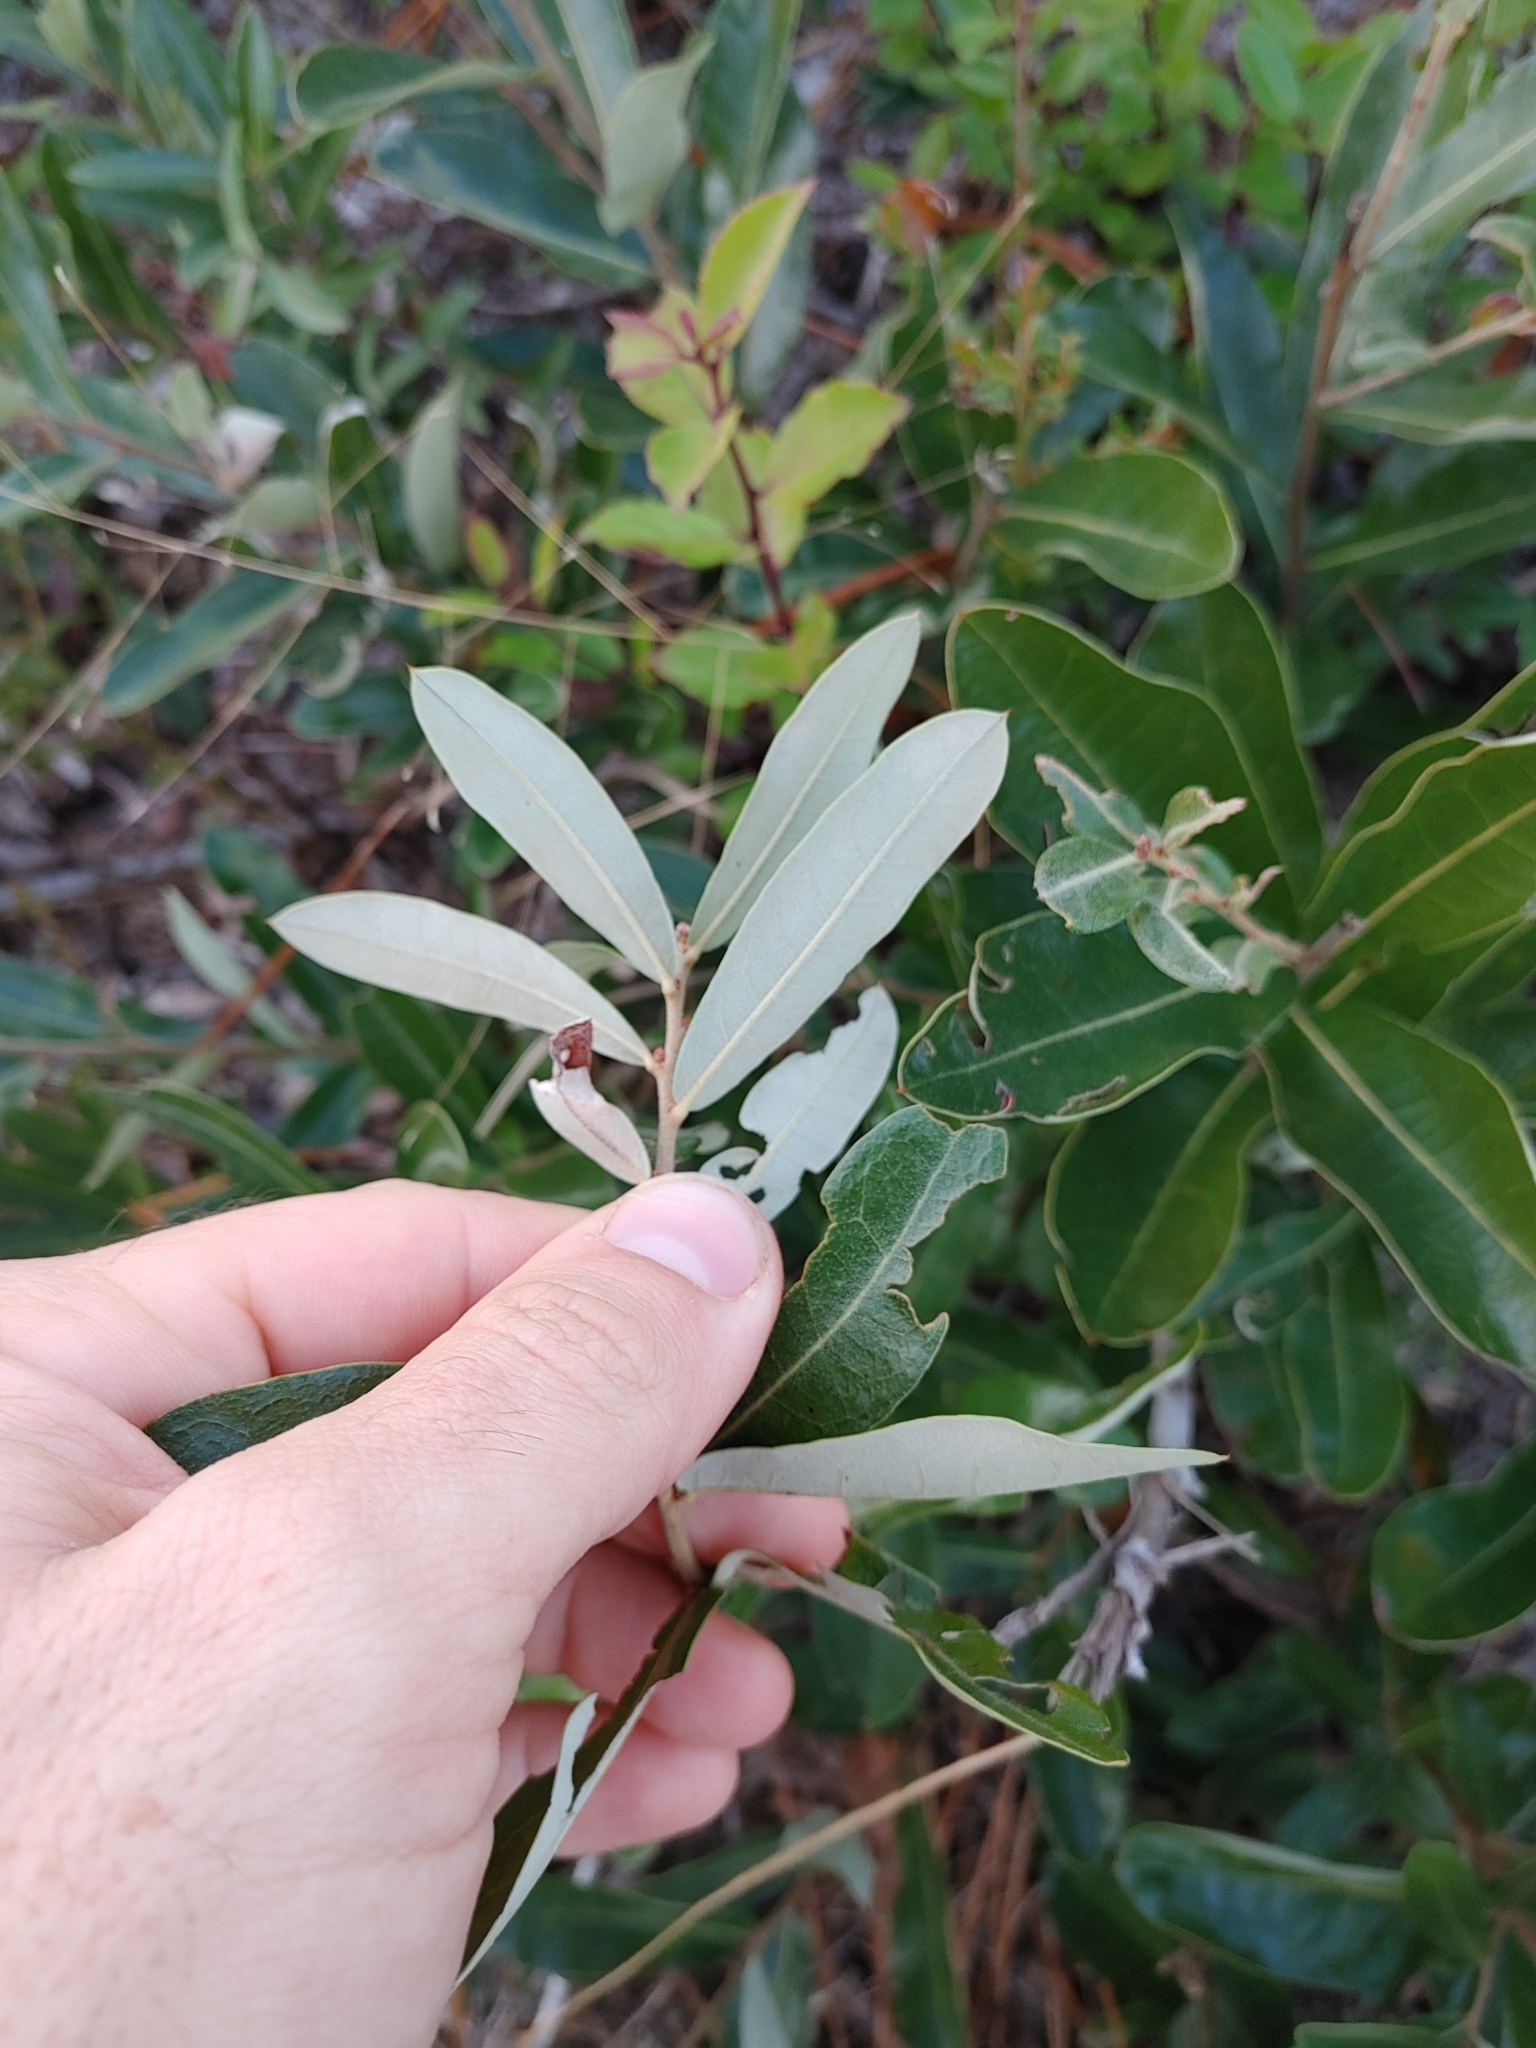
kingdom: Plantae
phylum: Tracheophyta
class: Magnoliopsida
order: Fagales
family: Fagaceae
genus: Quercus
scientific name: Quercus pumila
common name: Runner oak
